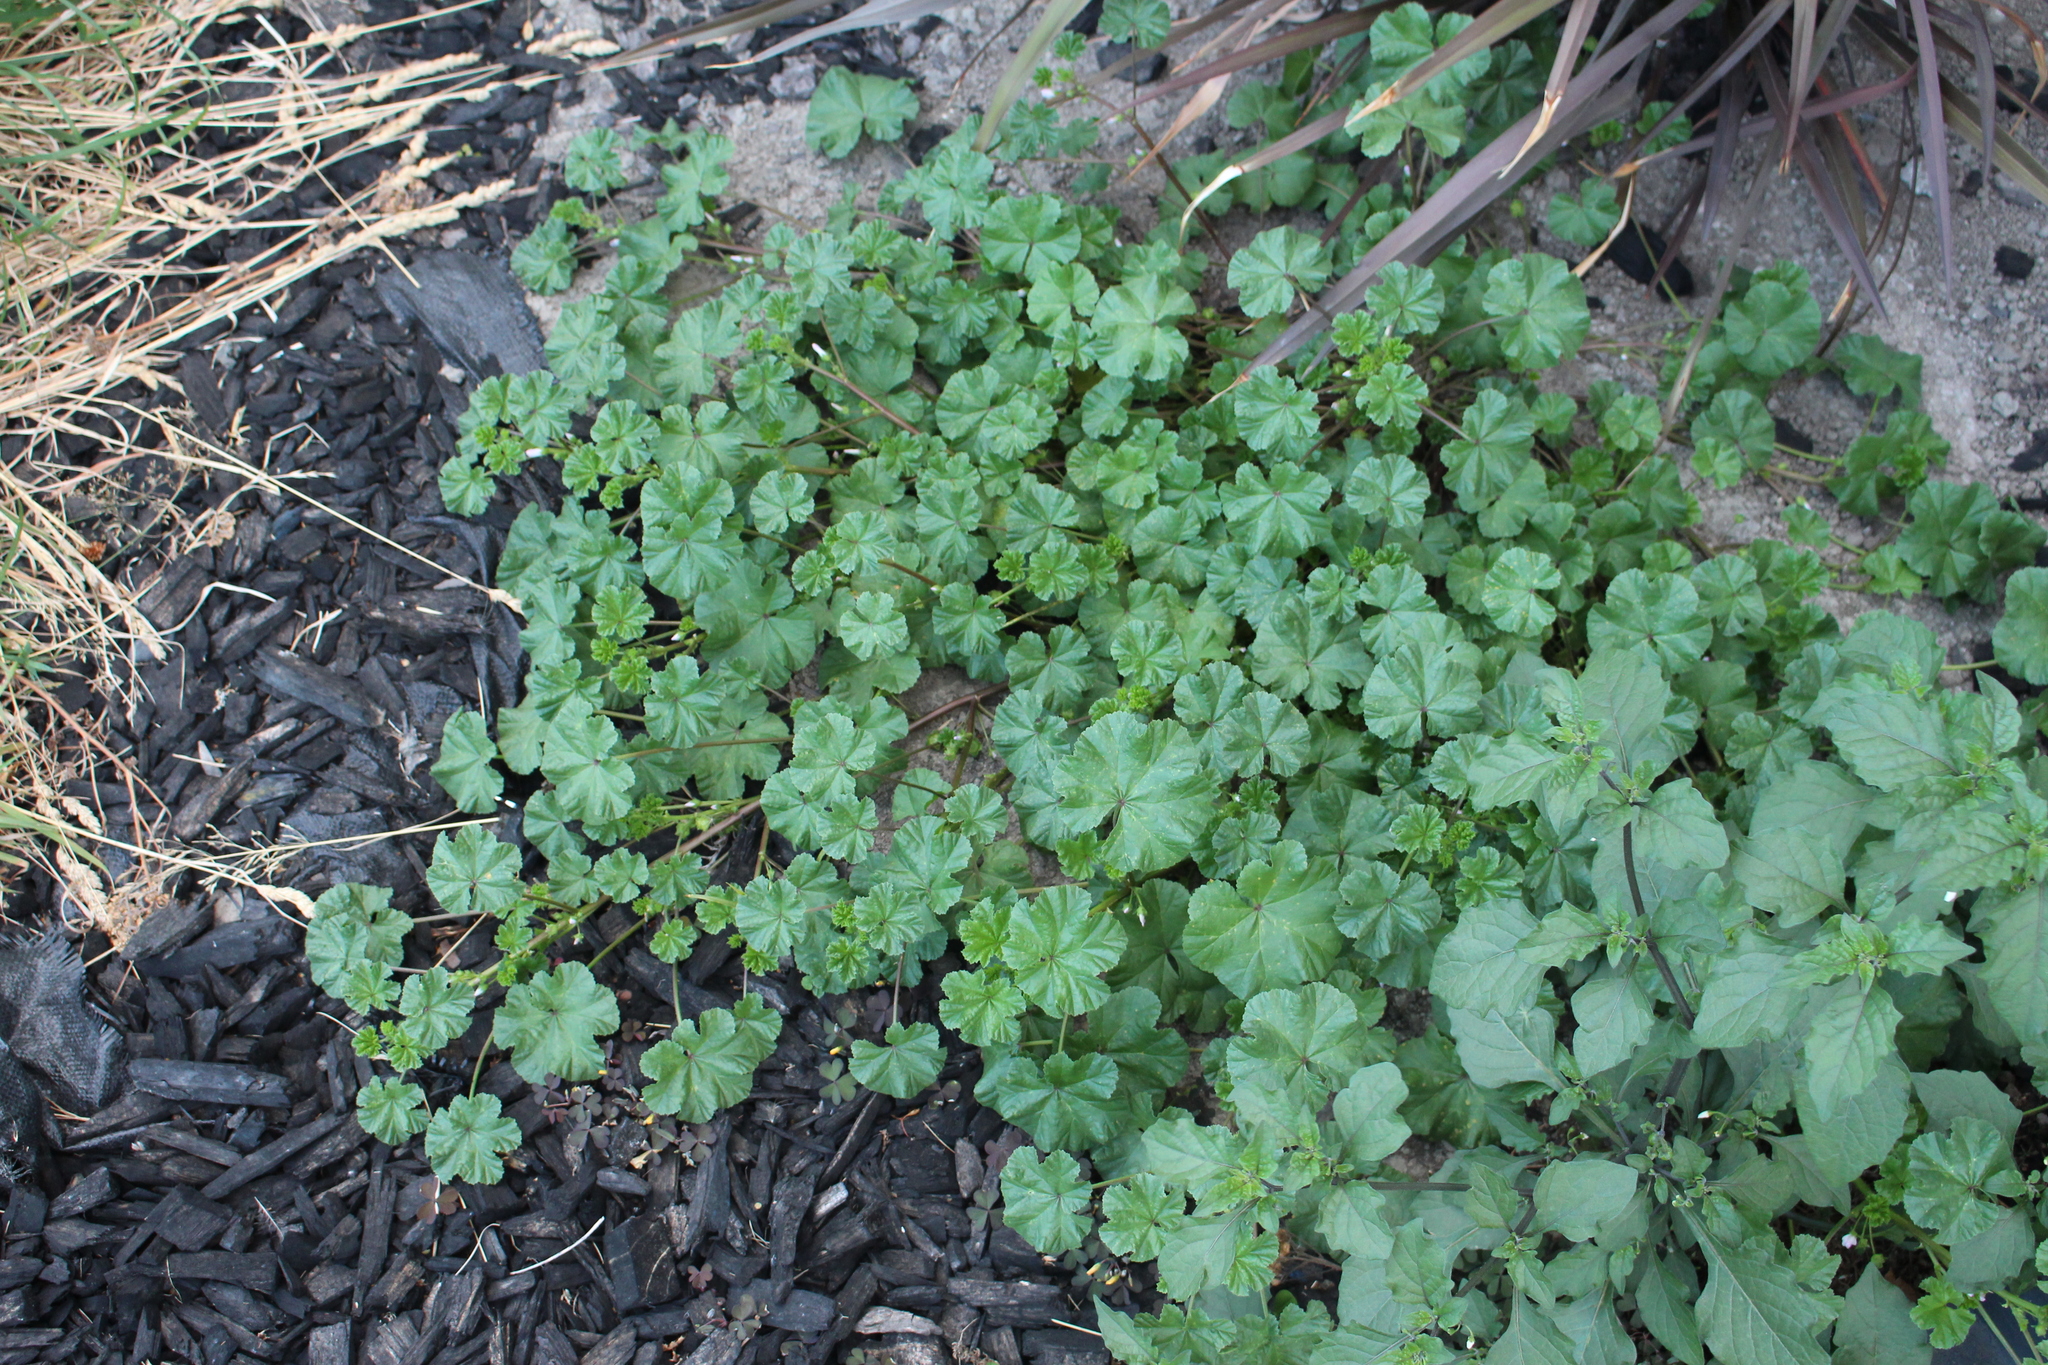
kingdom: Plantae
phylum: Tracheophyta
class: Magnoliopsida
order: Malvales
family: Malvaceae
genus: Malva
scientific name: Malva neglecta
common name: Common mallow
